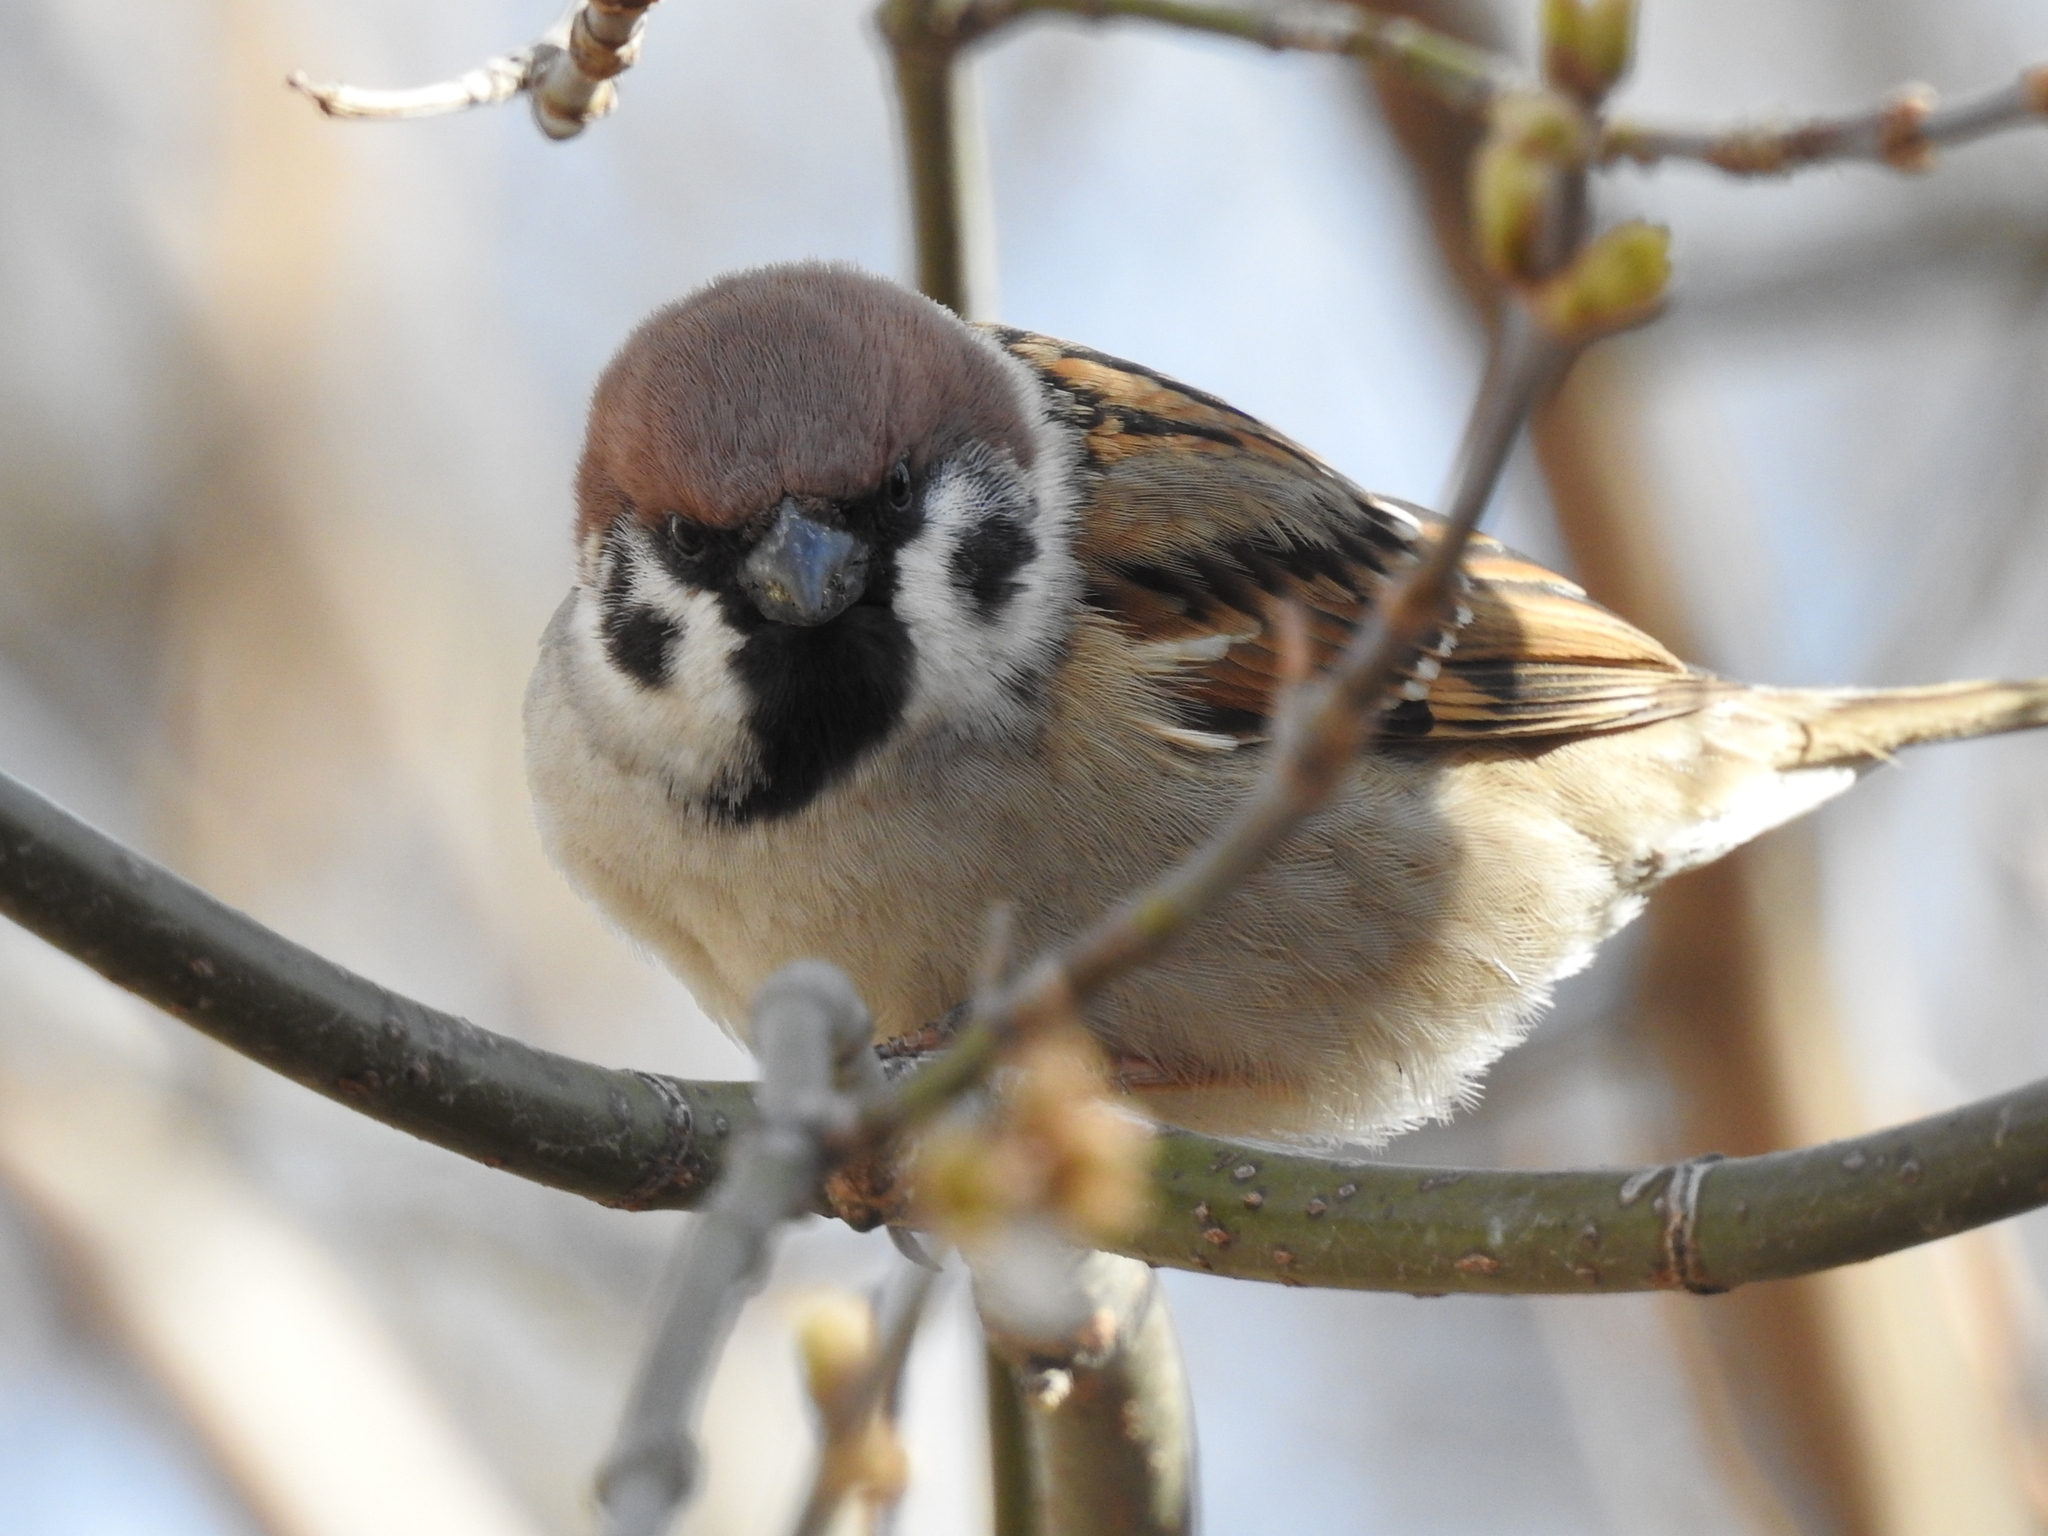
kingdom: Animalia
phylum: Chordata
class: Aves
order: Passeriformes
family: Passeridae
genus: Passer
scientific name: Passer montanus
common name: Eurasian tree sparrow
